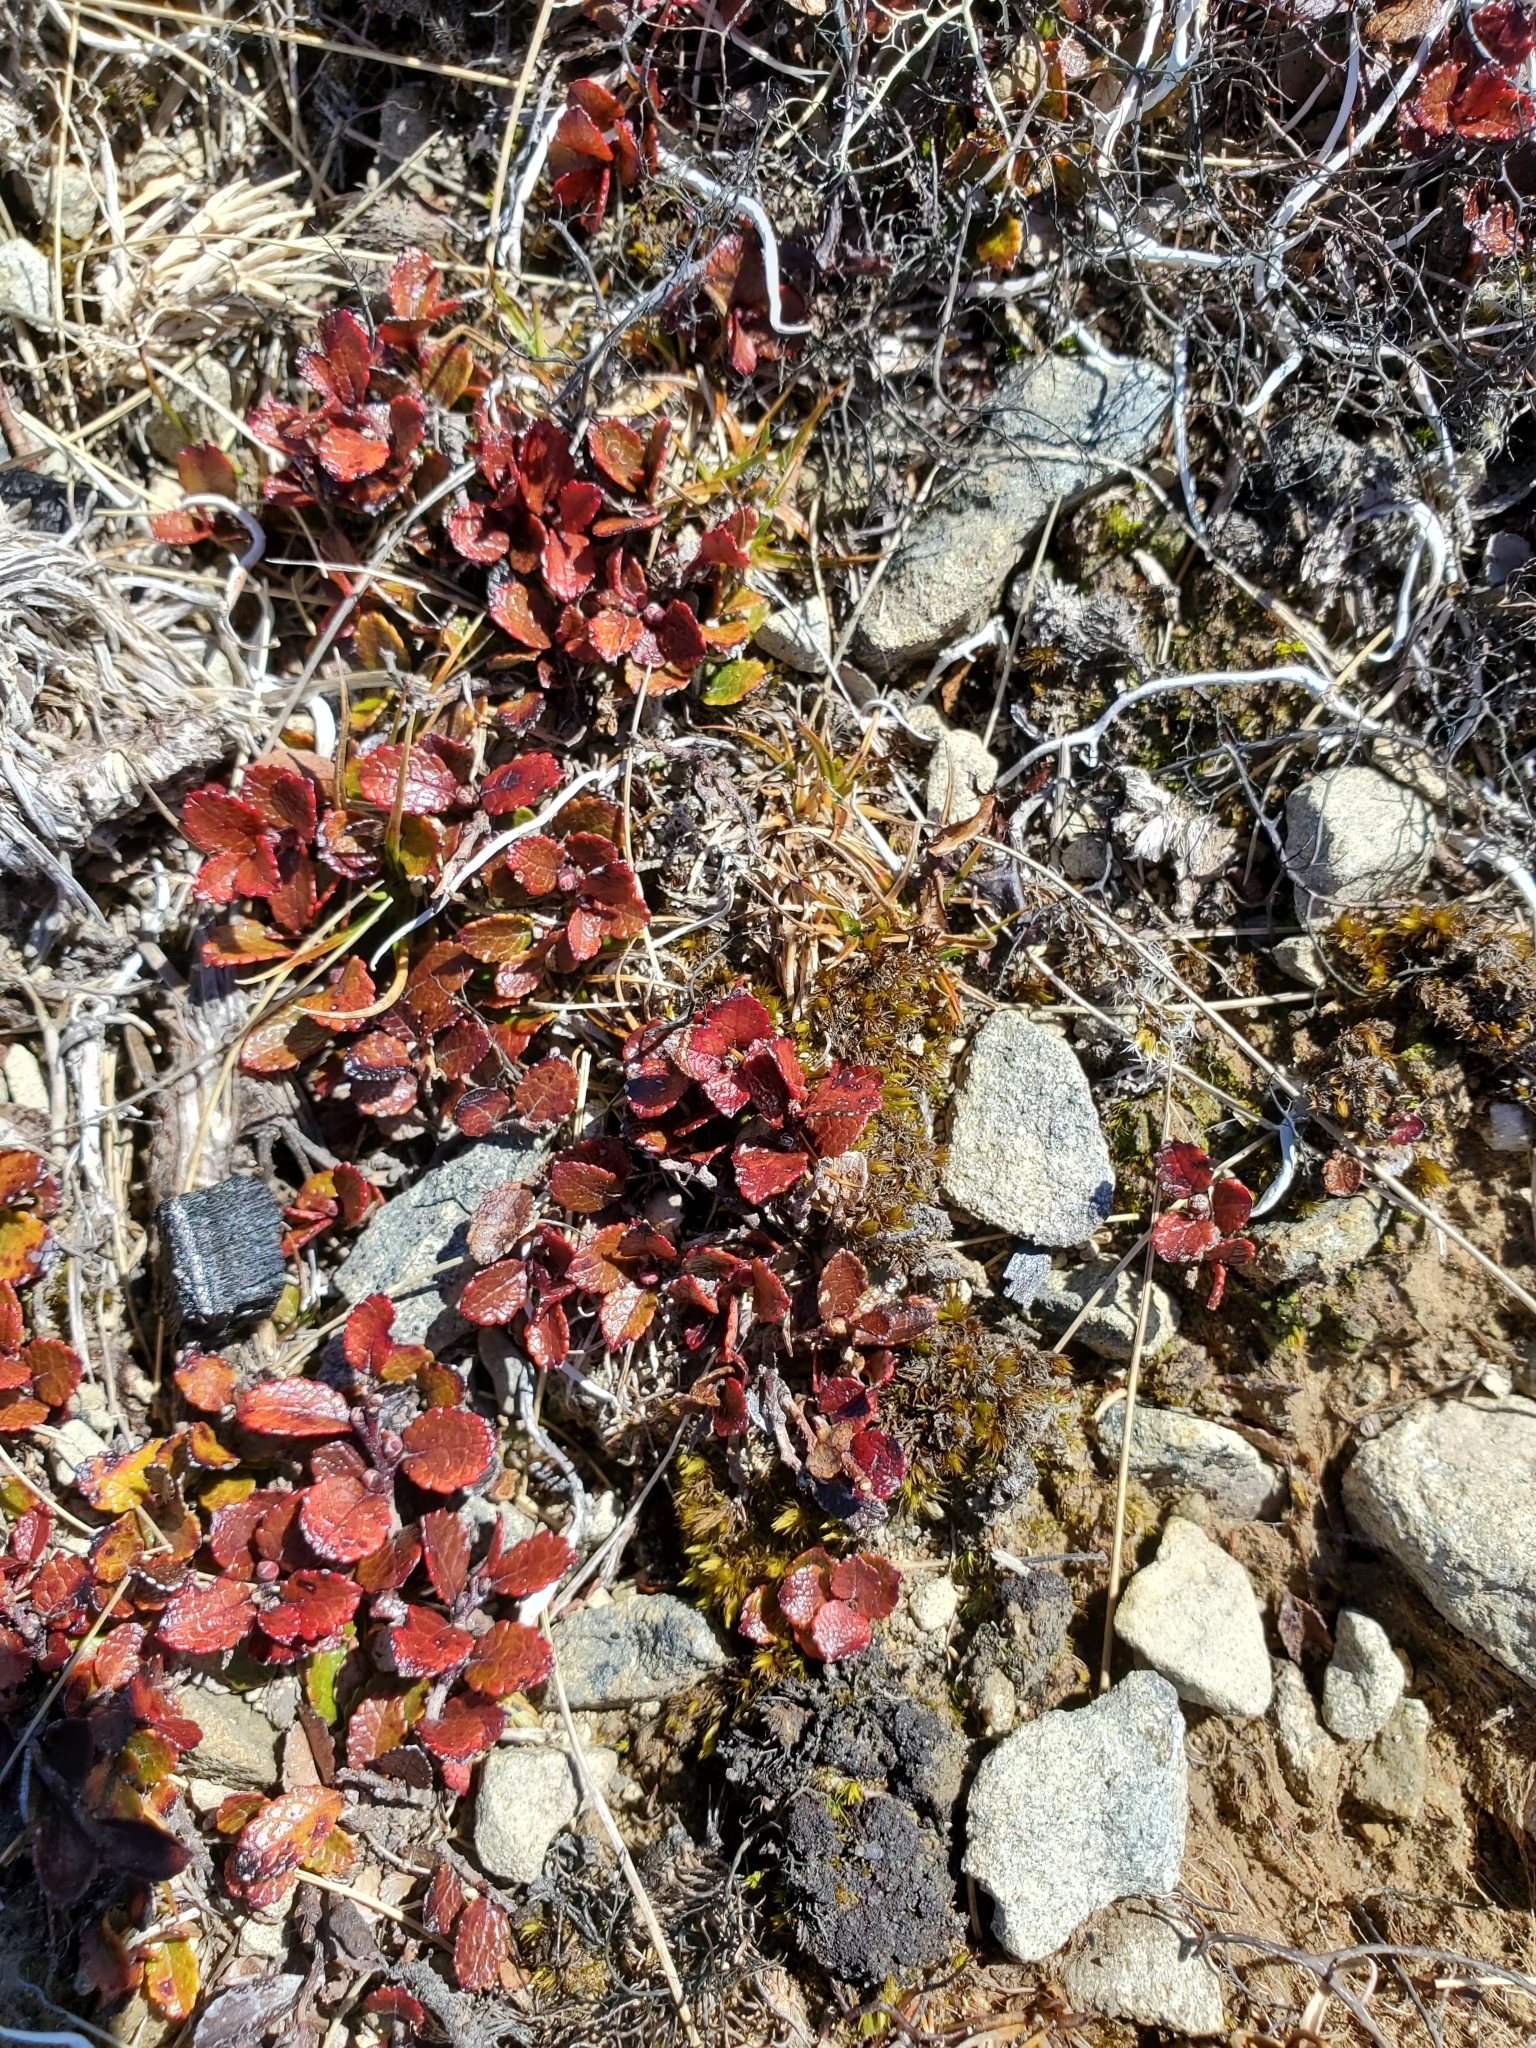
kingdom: Plantae
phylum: Tracheophyta
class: Magnoliopsida
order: Ericales
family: Ericaceae
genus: Gaultheria
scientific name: Gaultheria depressa
